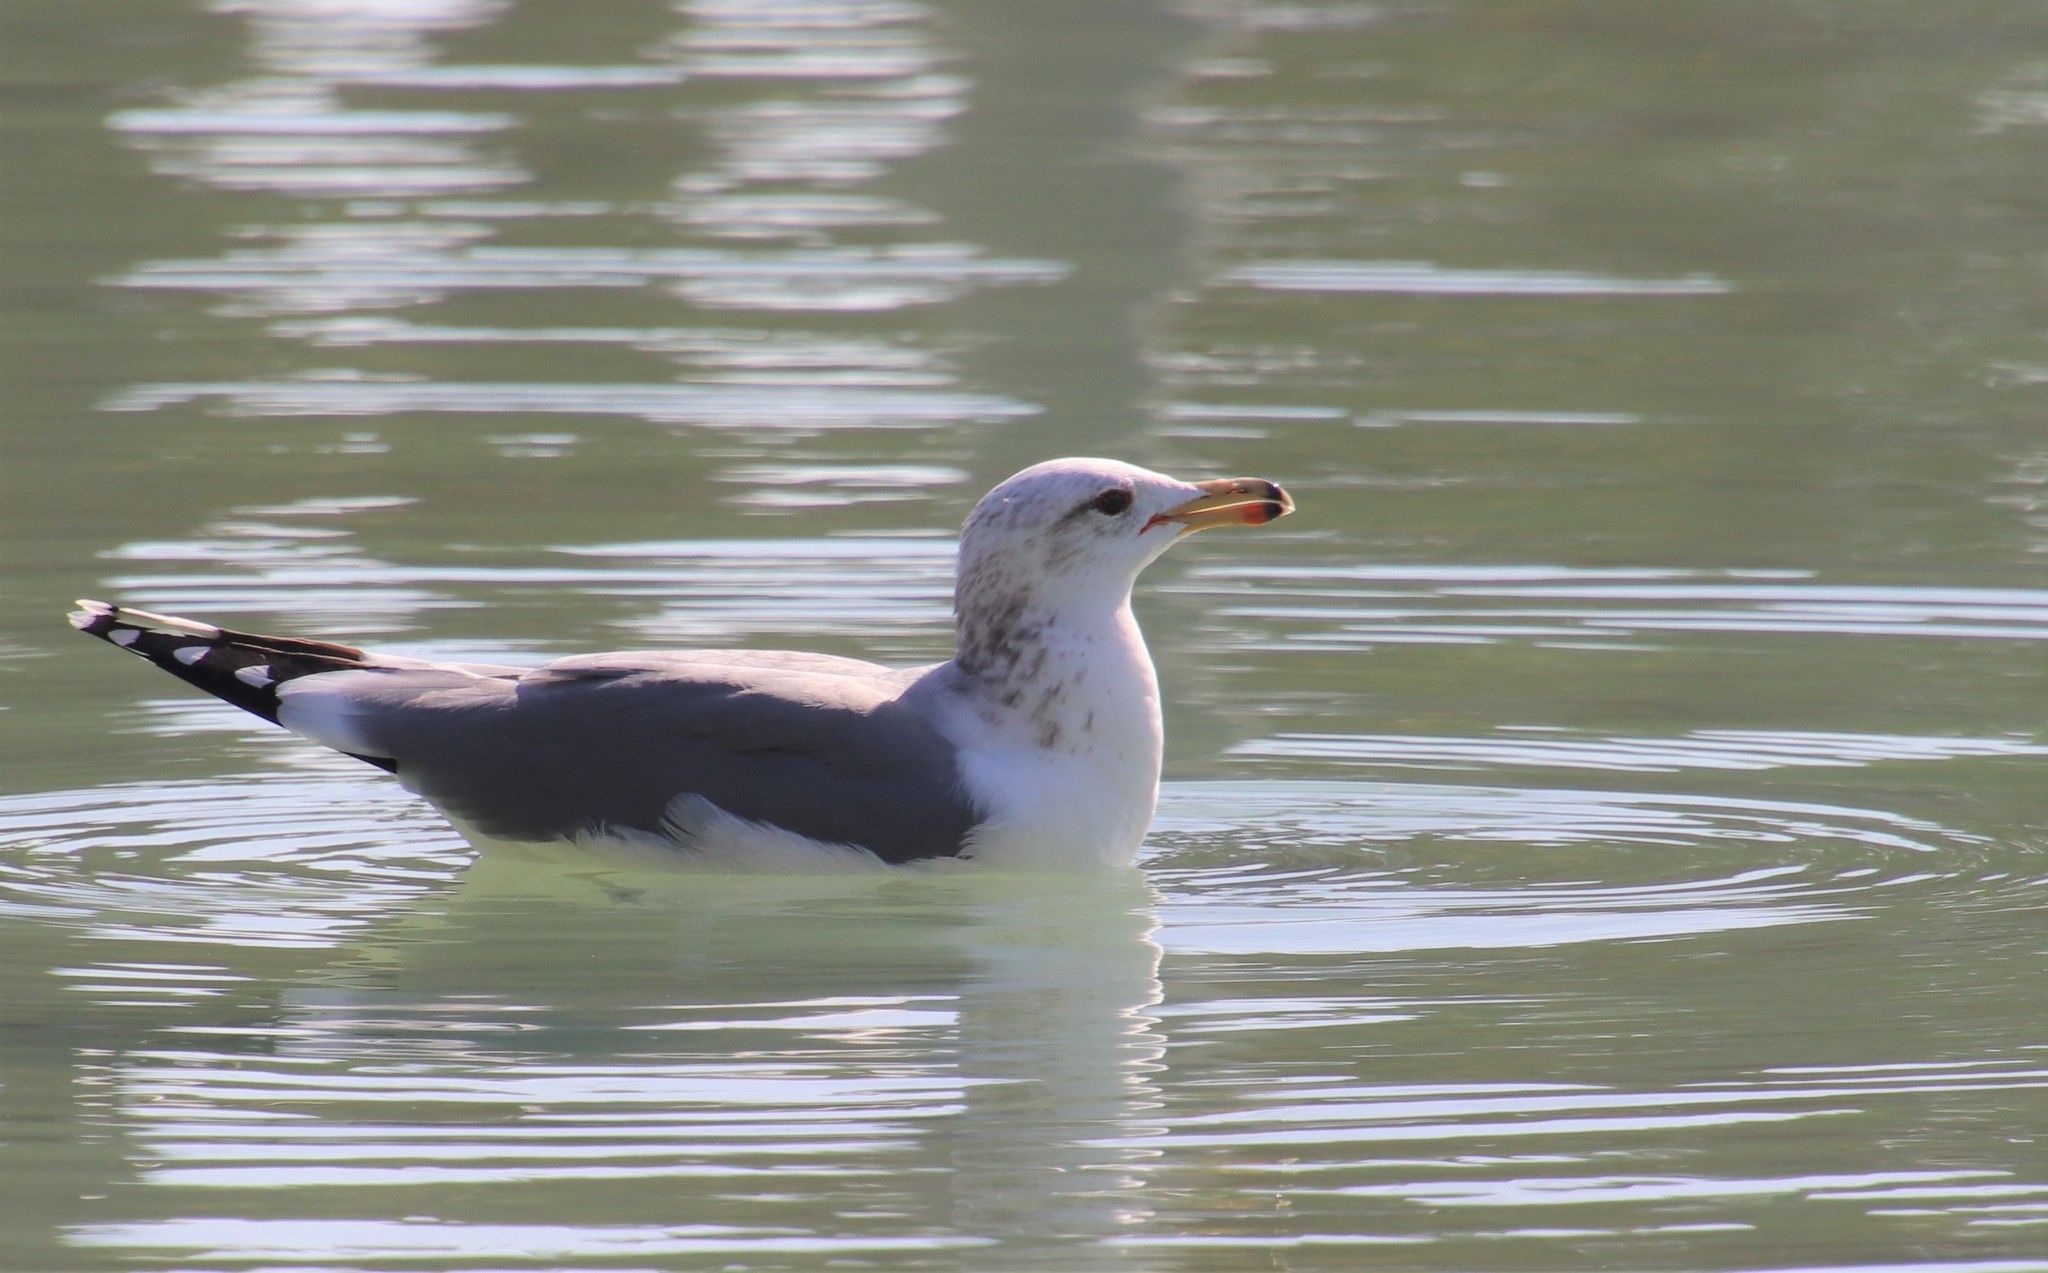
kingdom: Animalia
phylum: Chordata
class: Aves
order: Charadriiformes
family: Laridae
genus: Larus
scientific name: Larus californicus
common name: California gull
